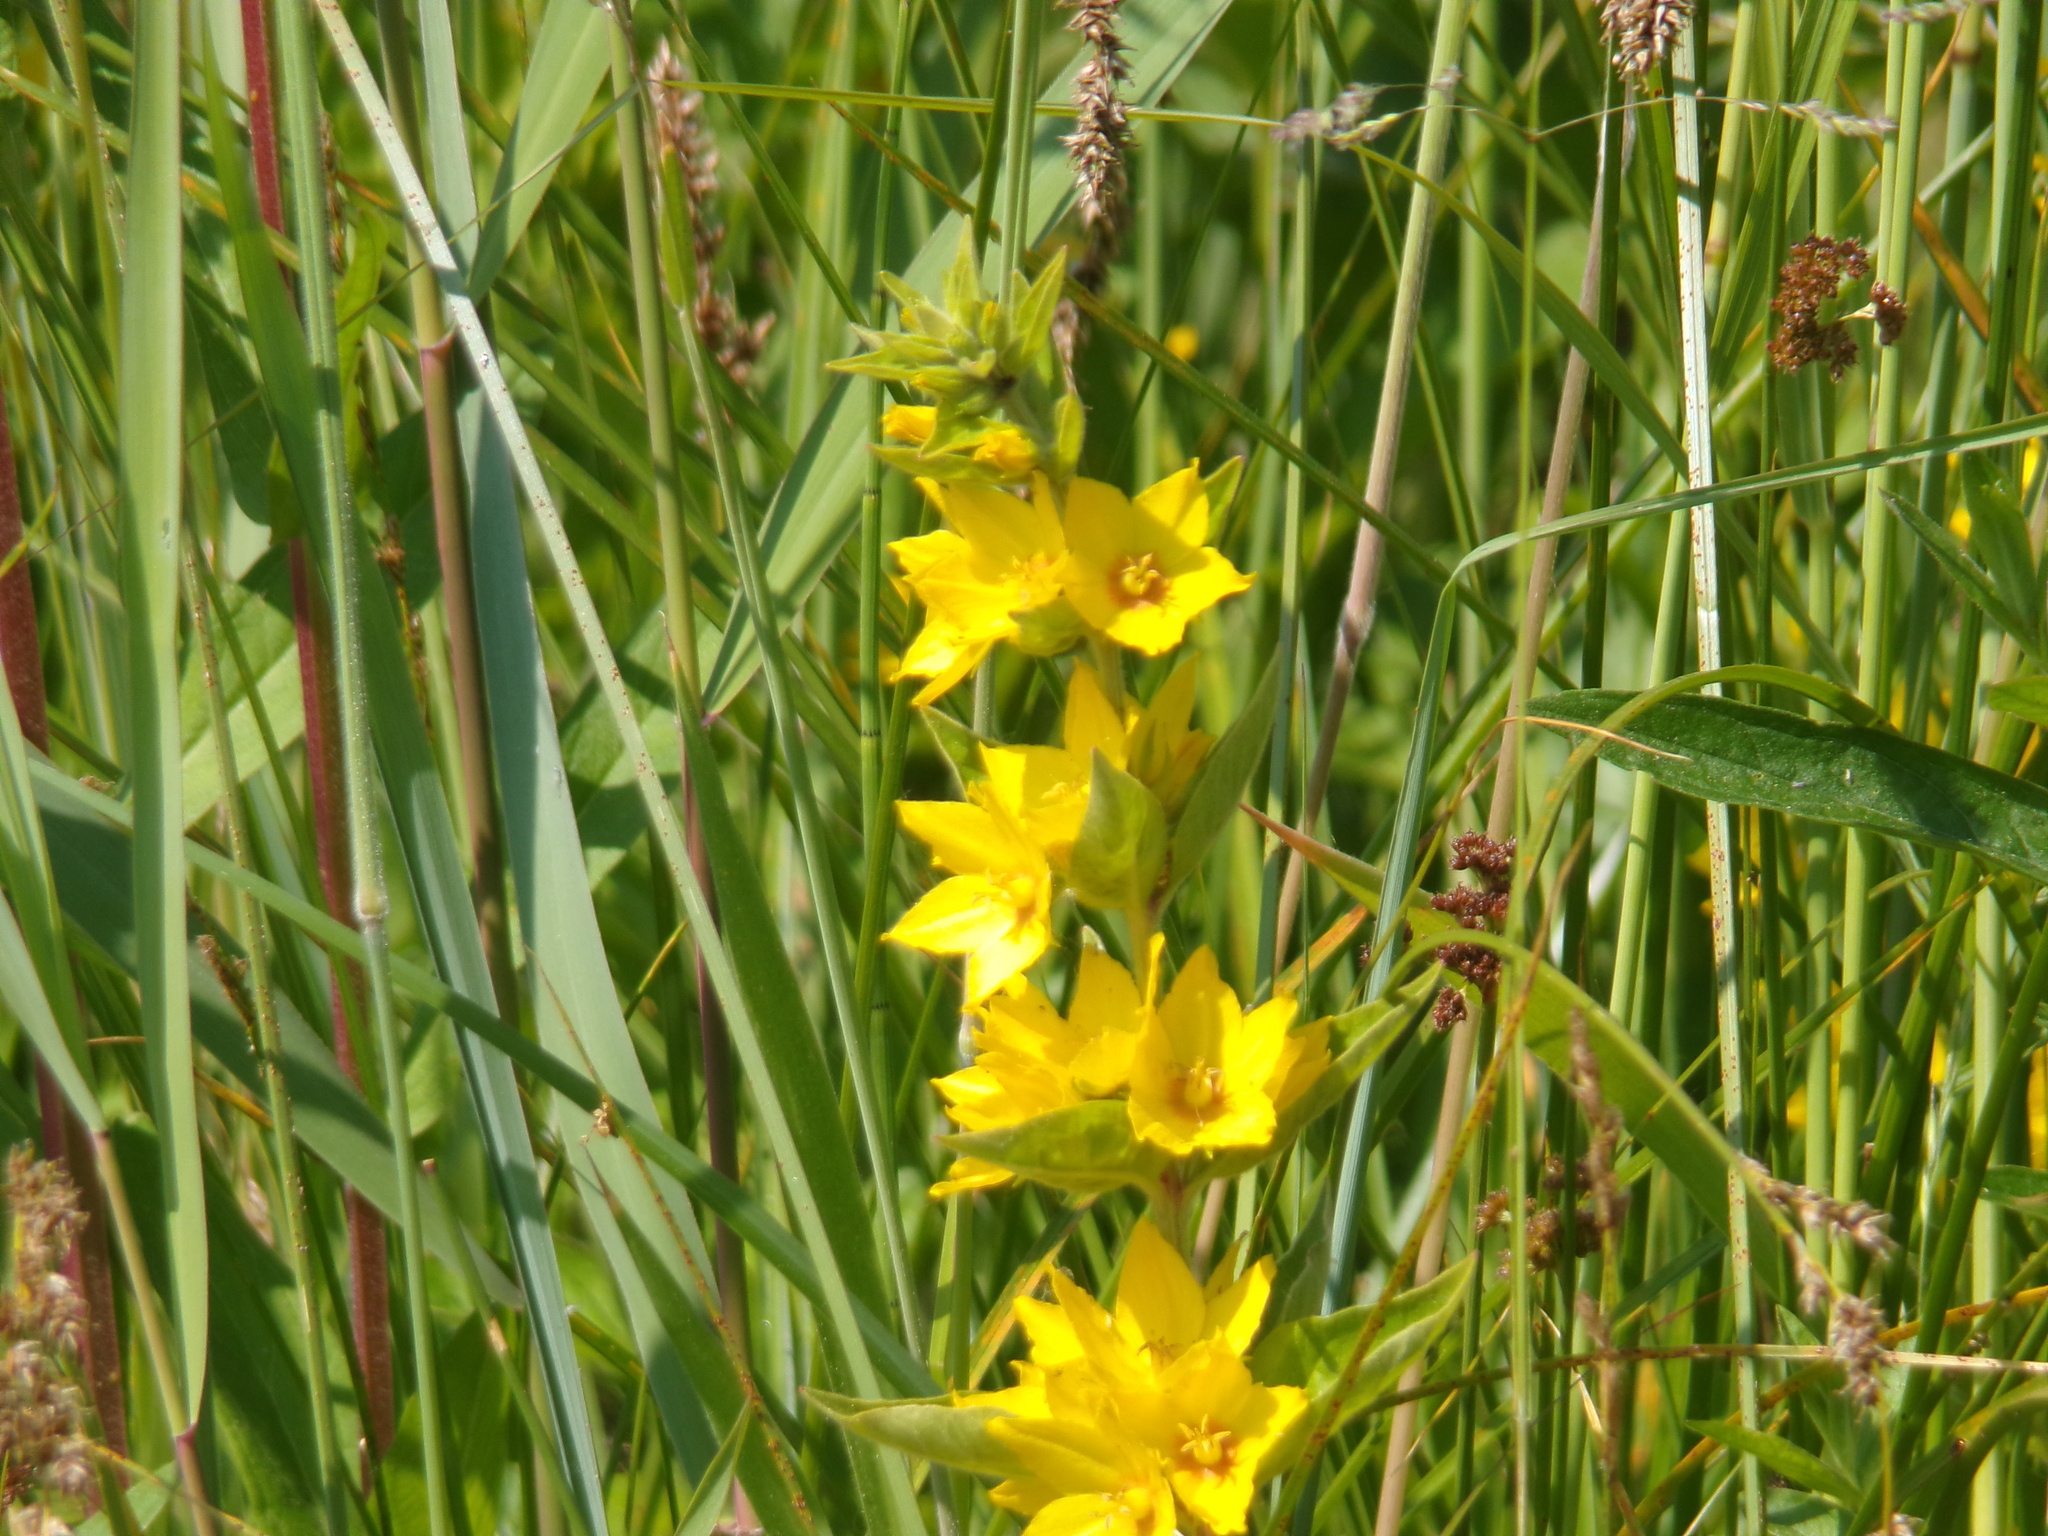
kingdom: Plantae
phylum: Tracheophyta
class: Magnoliopsida
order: Ericales
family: Primulaceae
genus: Lysimachia
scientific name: Lysimachia punctata
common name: Dotted loosestrife
